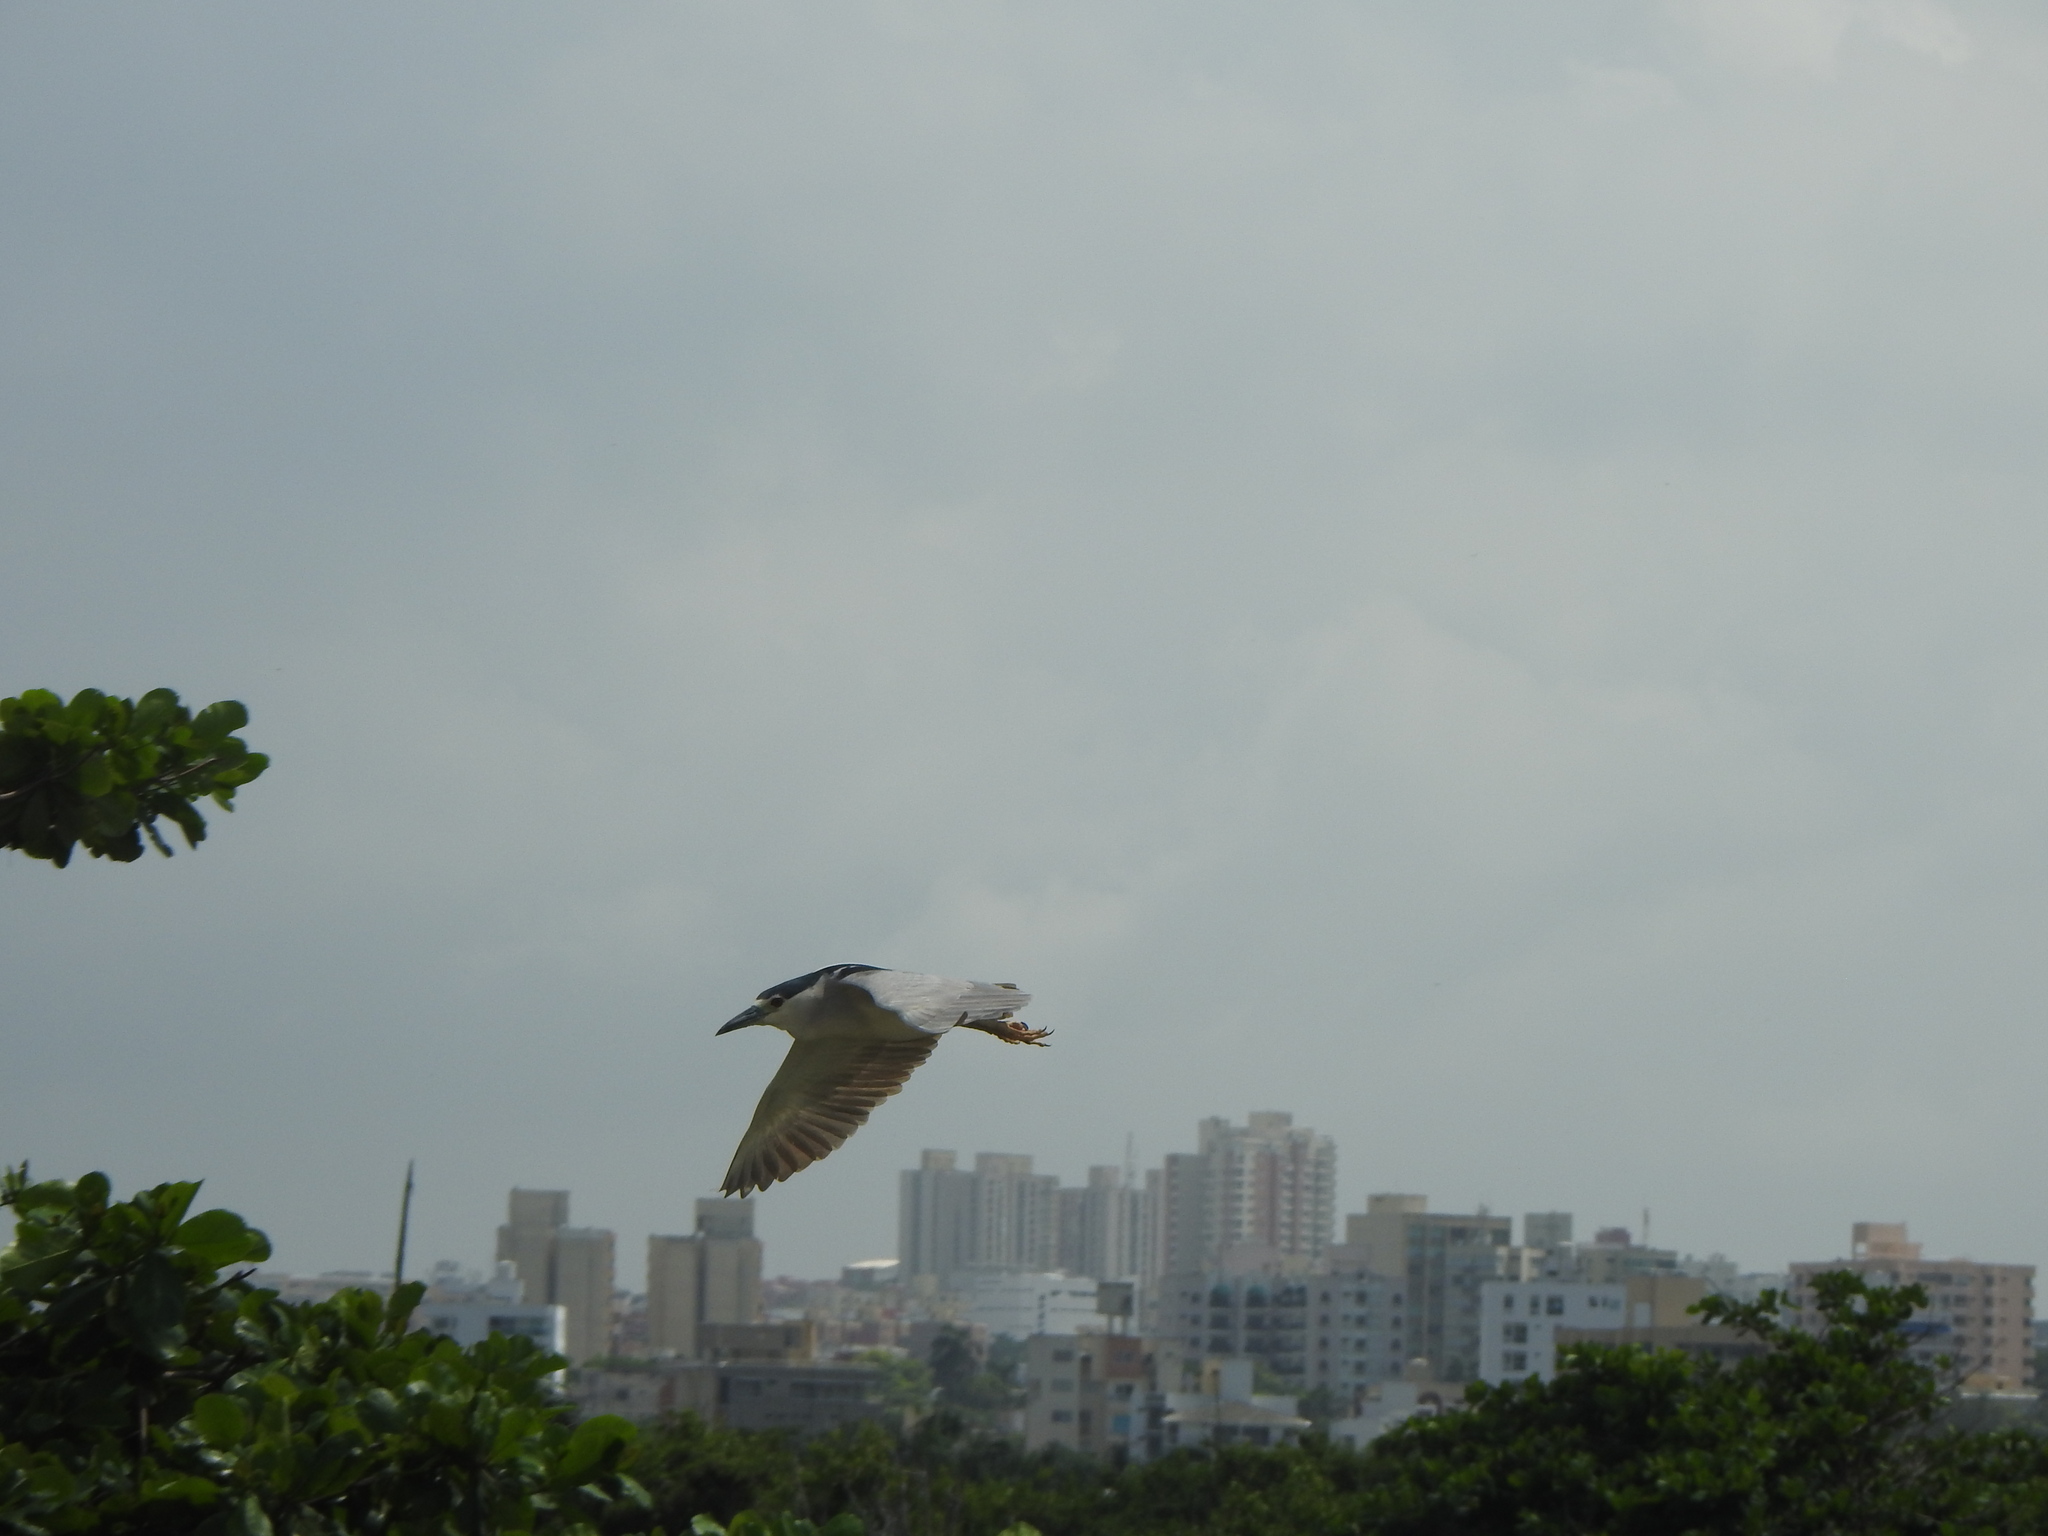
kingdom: Animalia
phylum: Chordata
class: Aves
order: Pelecaniformes
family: Ardeidae
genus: Nycticorax
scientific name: Nycticorax nycticorax
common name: Black-crowned night heron
